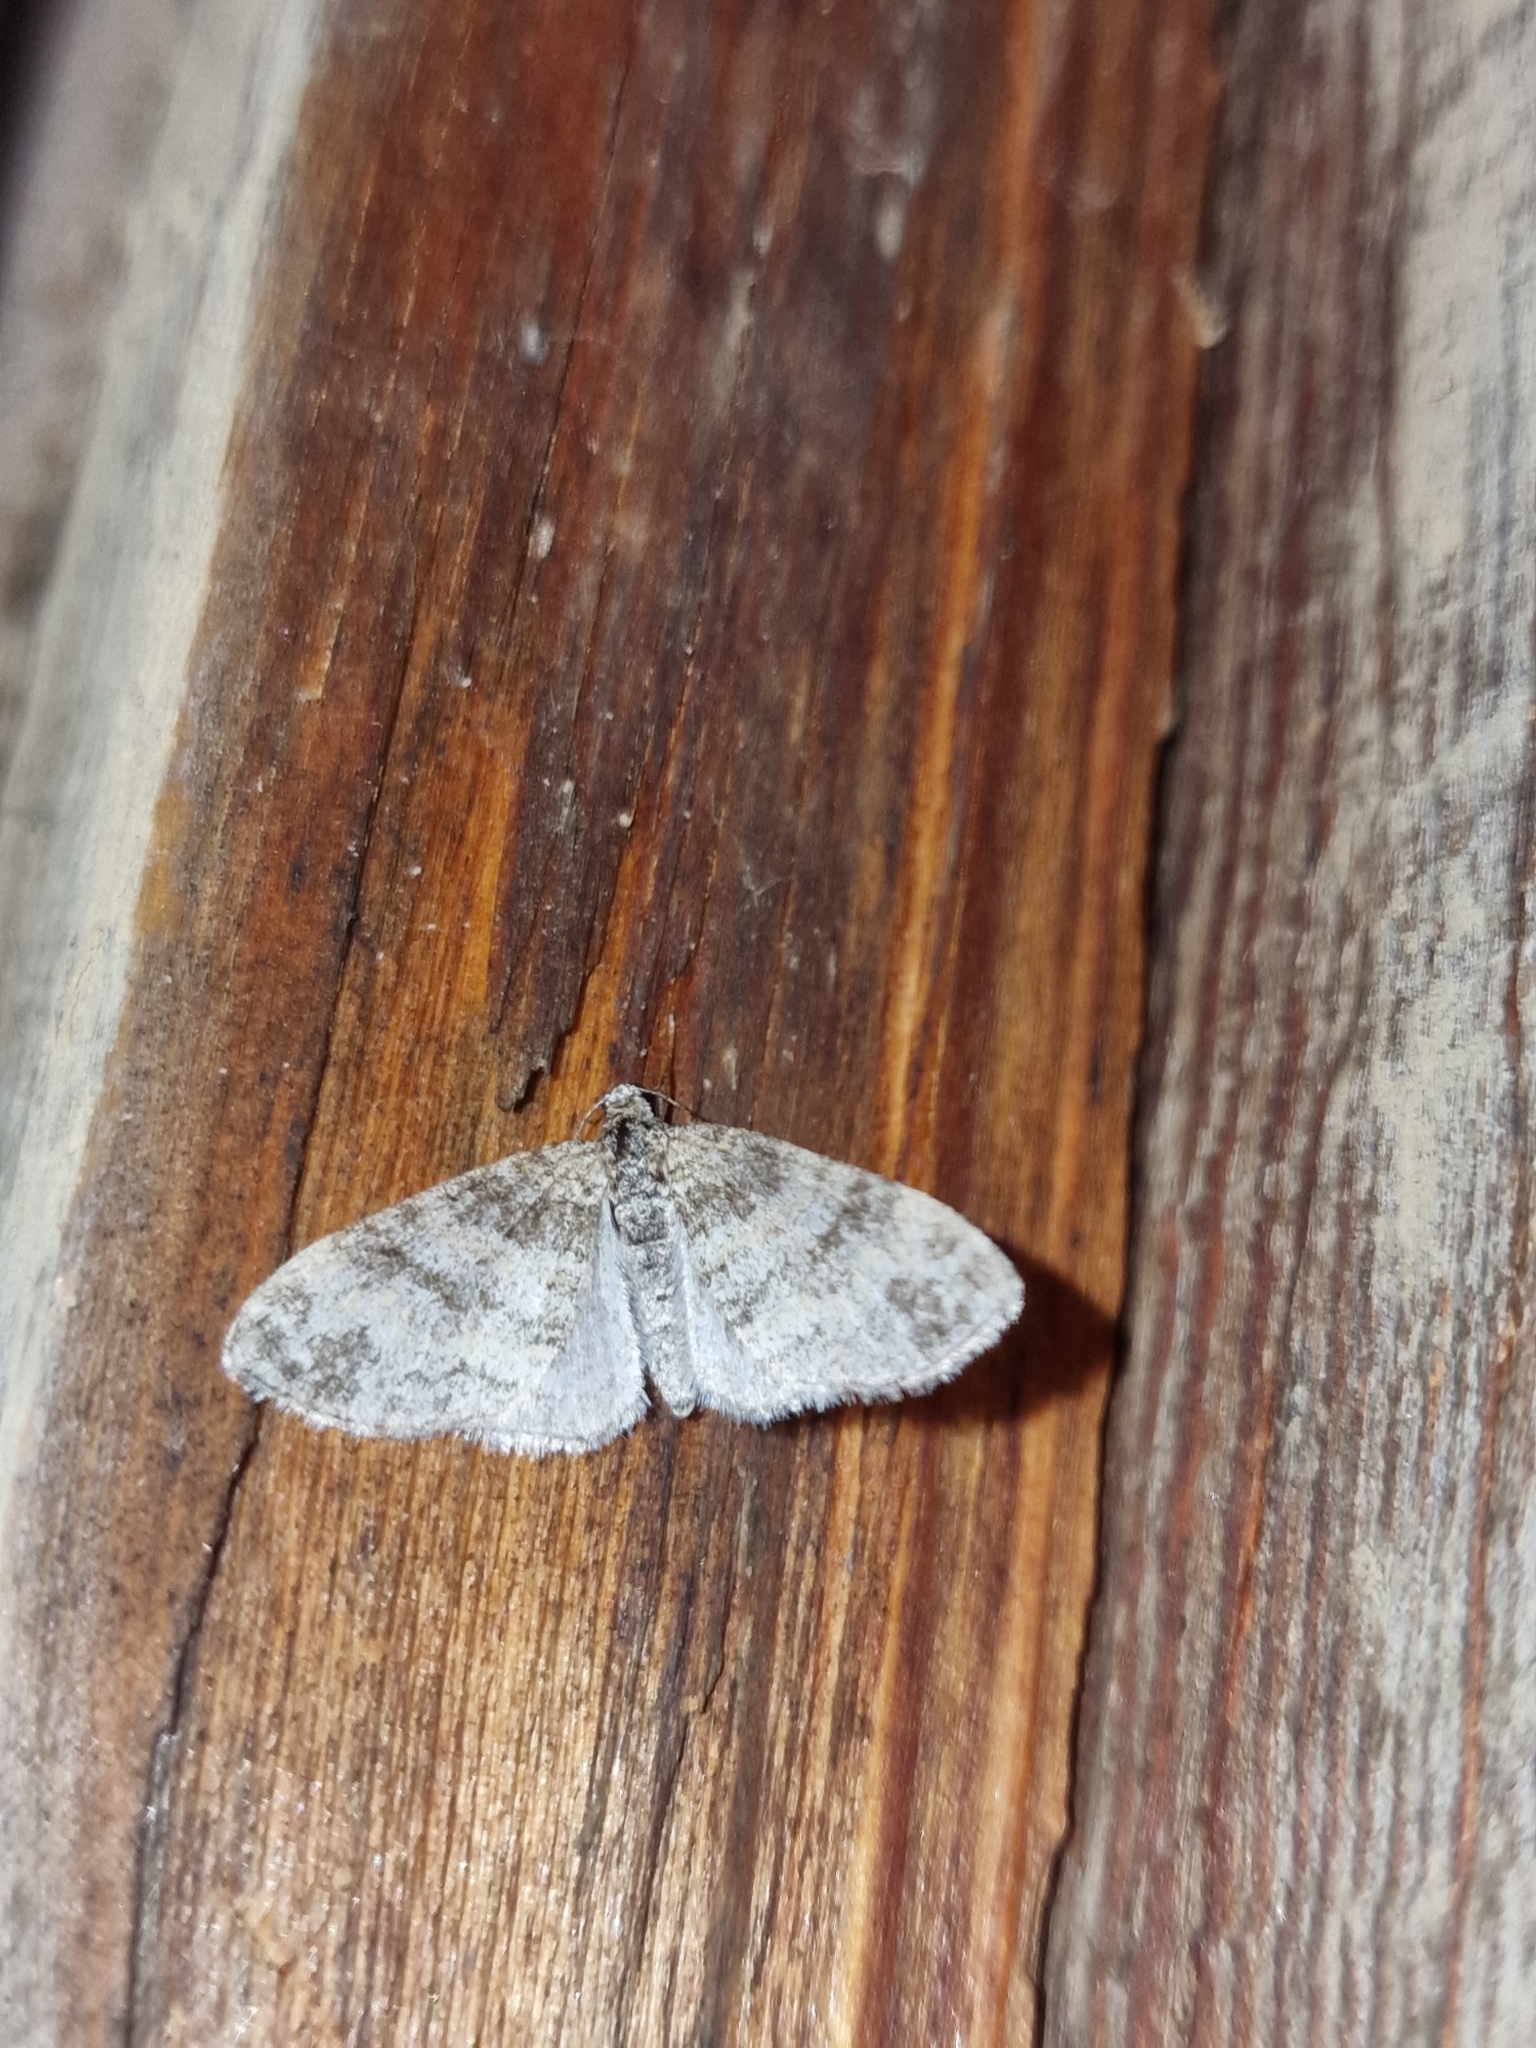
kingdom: Animalia
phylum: Arthropoda
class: Insecta
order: Lepidoptera
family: Geometridae
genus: Lobophora
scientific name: Lobophora halterata
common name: Seraphim
